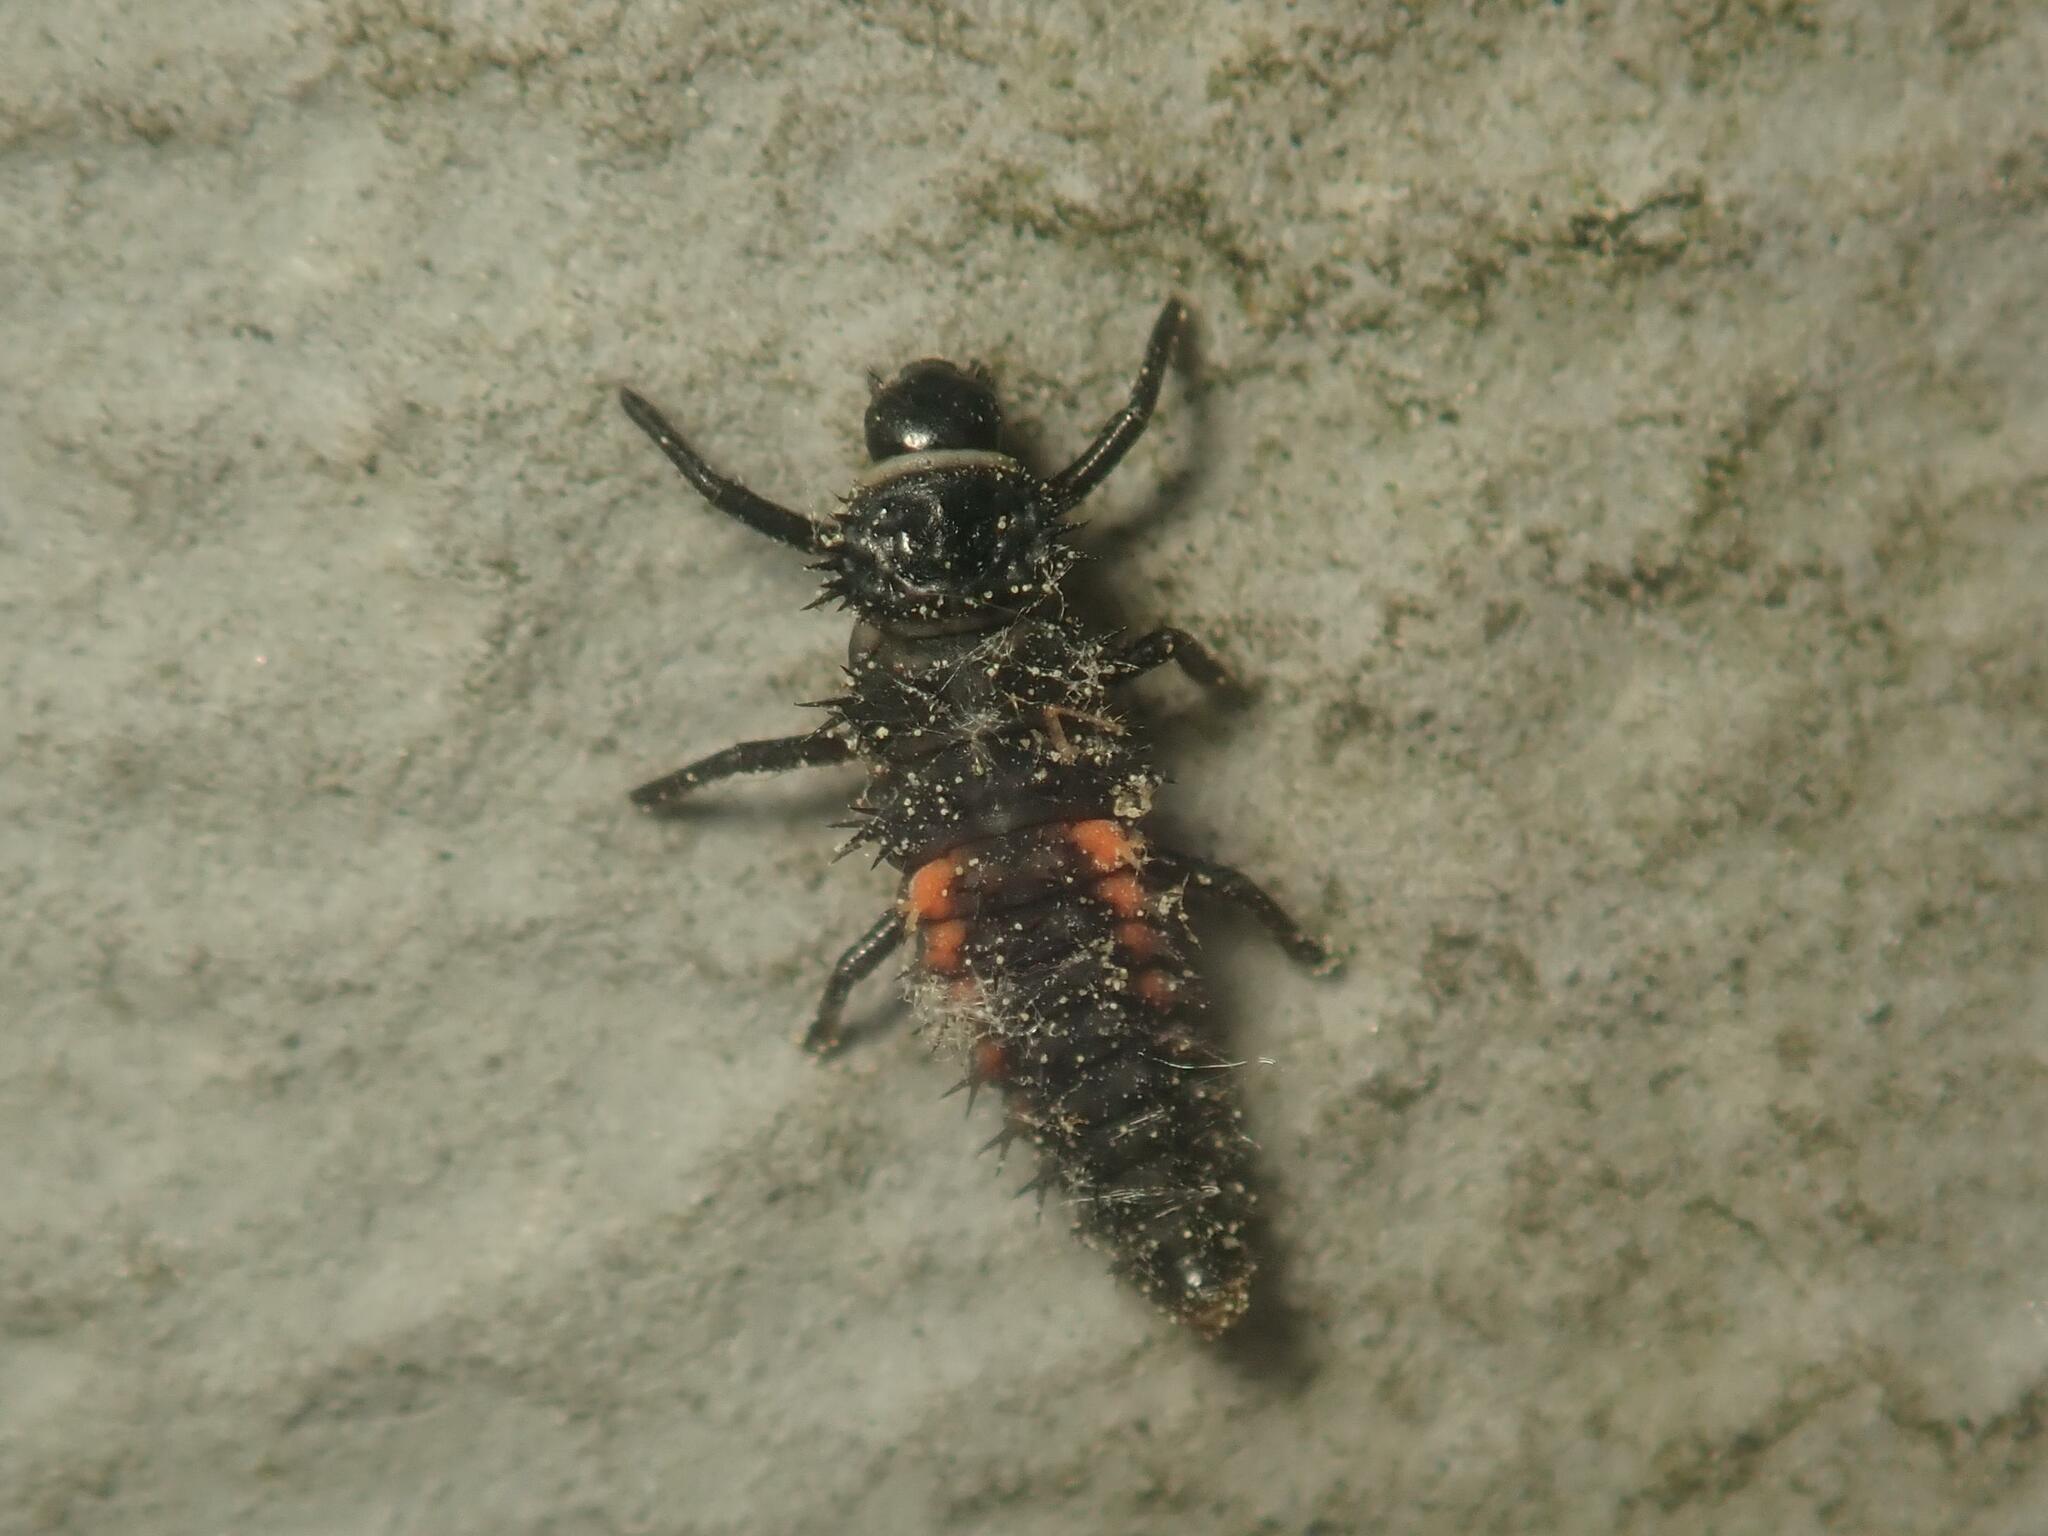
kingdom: Animalia
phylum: Arthropoda
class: Insecta
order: Coleoptera
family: Coccinellidae
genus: Harmonia
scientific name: Harmonia axyridis
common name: Harlequin ladybird
